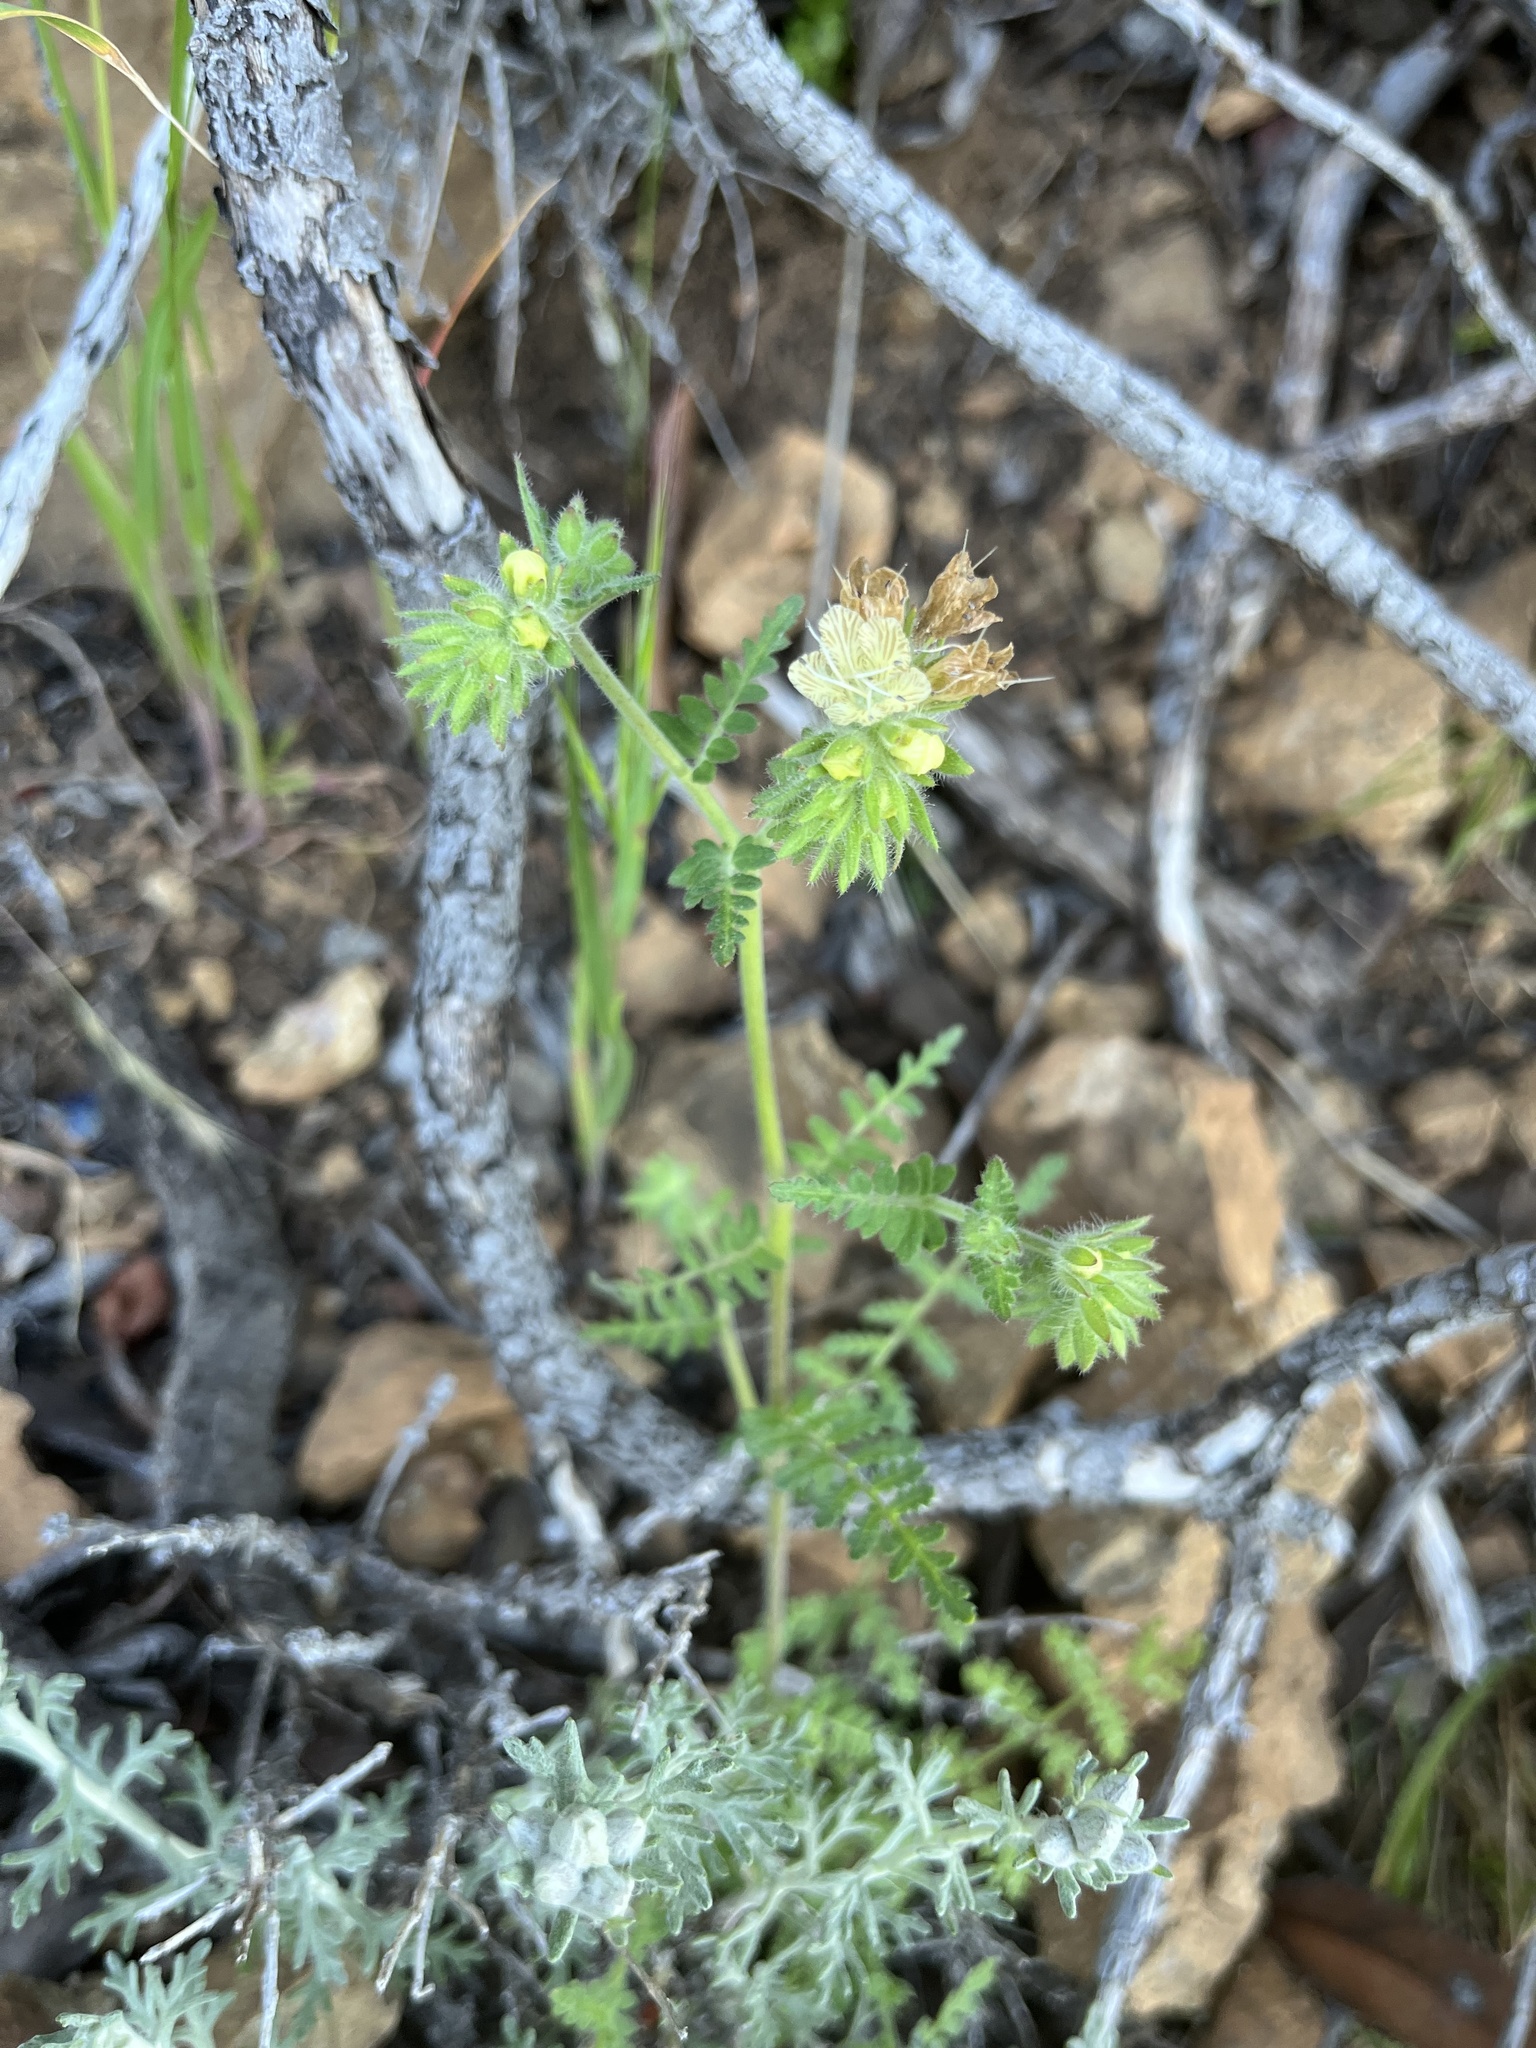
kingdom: Plantae
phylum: Tracheophyta
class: Magnoliopsida
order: Boraginales
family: Hydrophyllaceae
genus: Phacelia
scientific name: Phacelia distans
